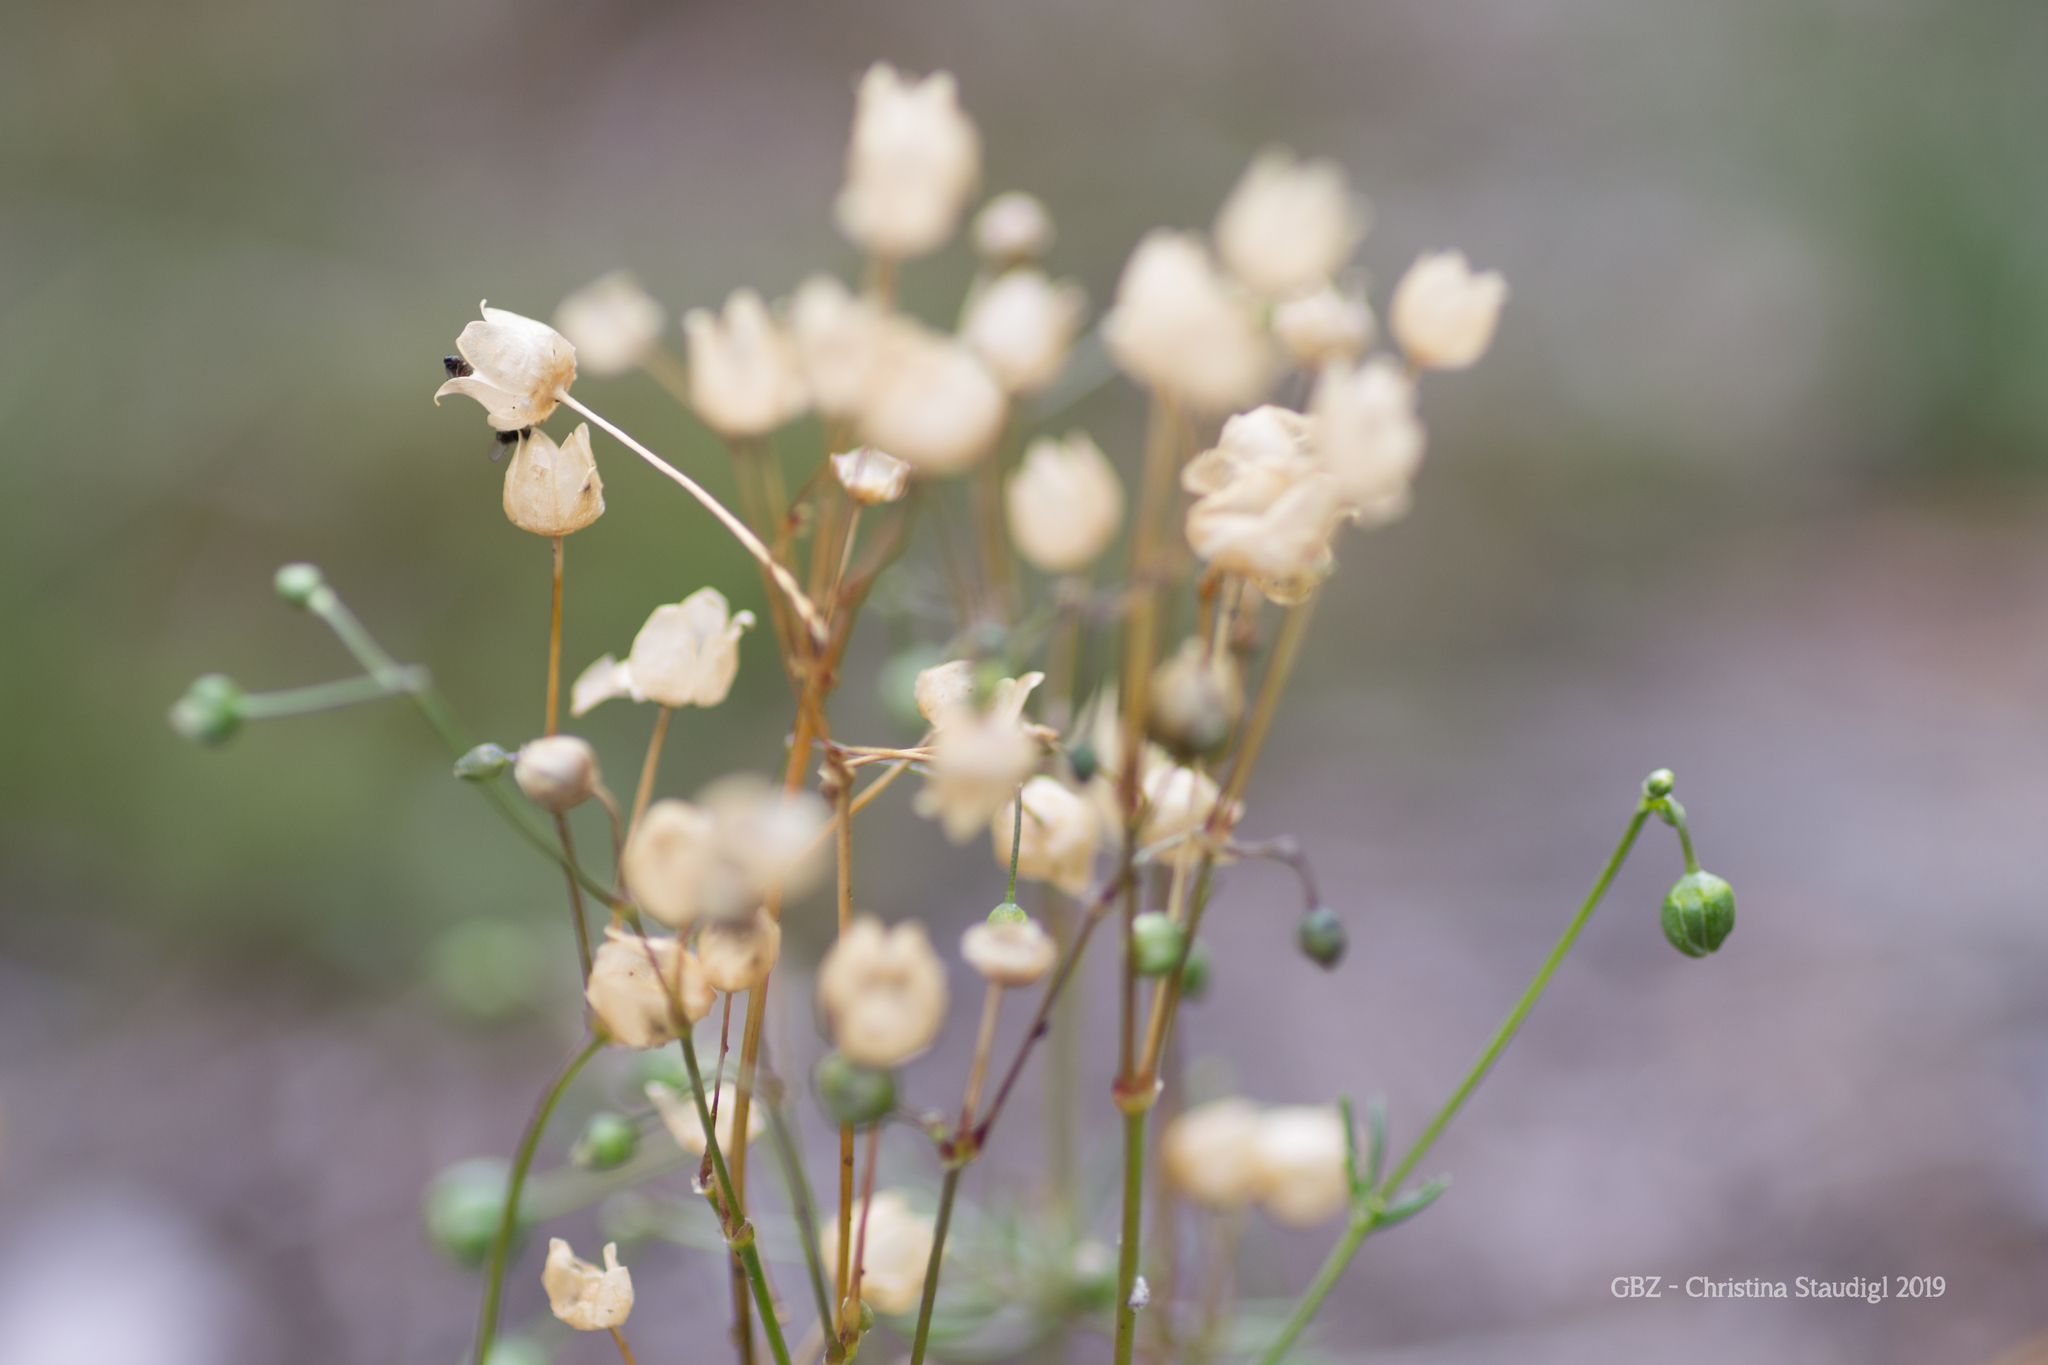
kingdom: Plantae
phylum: Tracheophyta
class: Magnoliopsida
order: Caryophyllales
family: Caryophyllaceae
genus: Spergula
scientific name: Spergula morisonii
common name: Pearlwort spurrey
